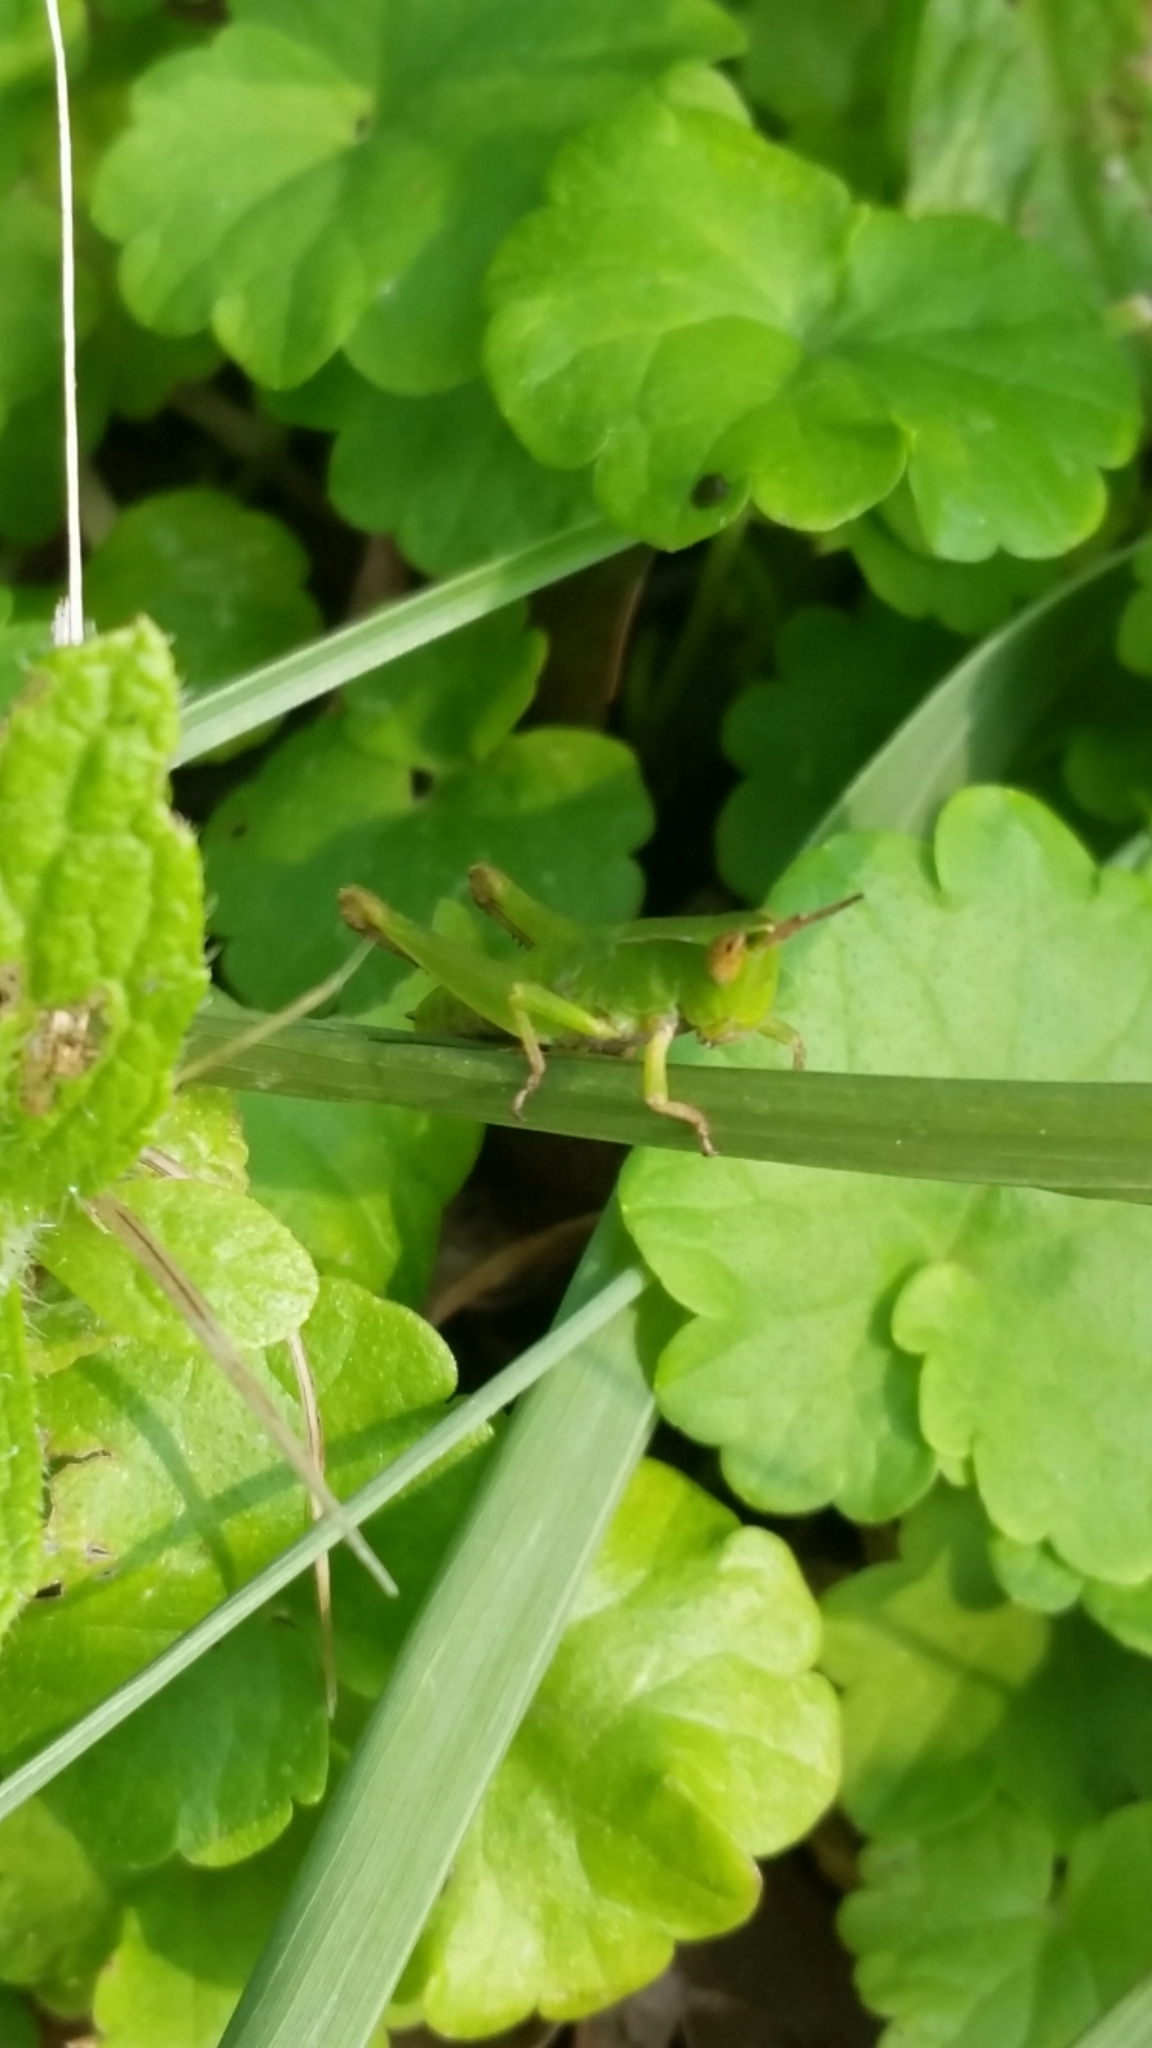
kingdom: Animalia
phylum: Arthropoda
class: Insecta
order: Orthoptera
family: Acrididae
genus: Dichromorpha
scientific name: Dichromorpha viridis
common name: Short-winged green grasshopper
